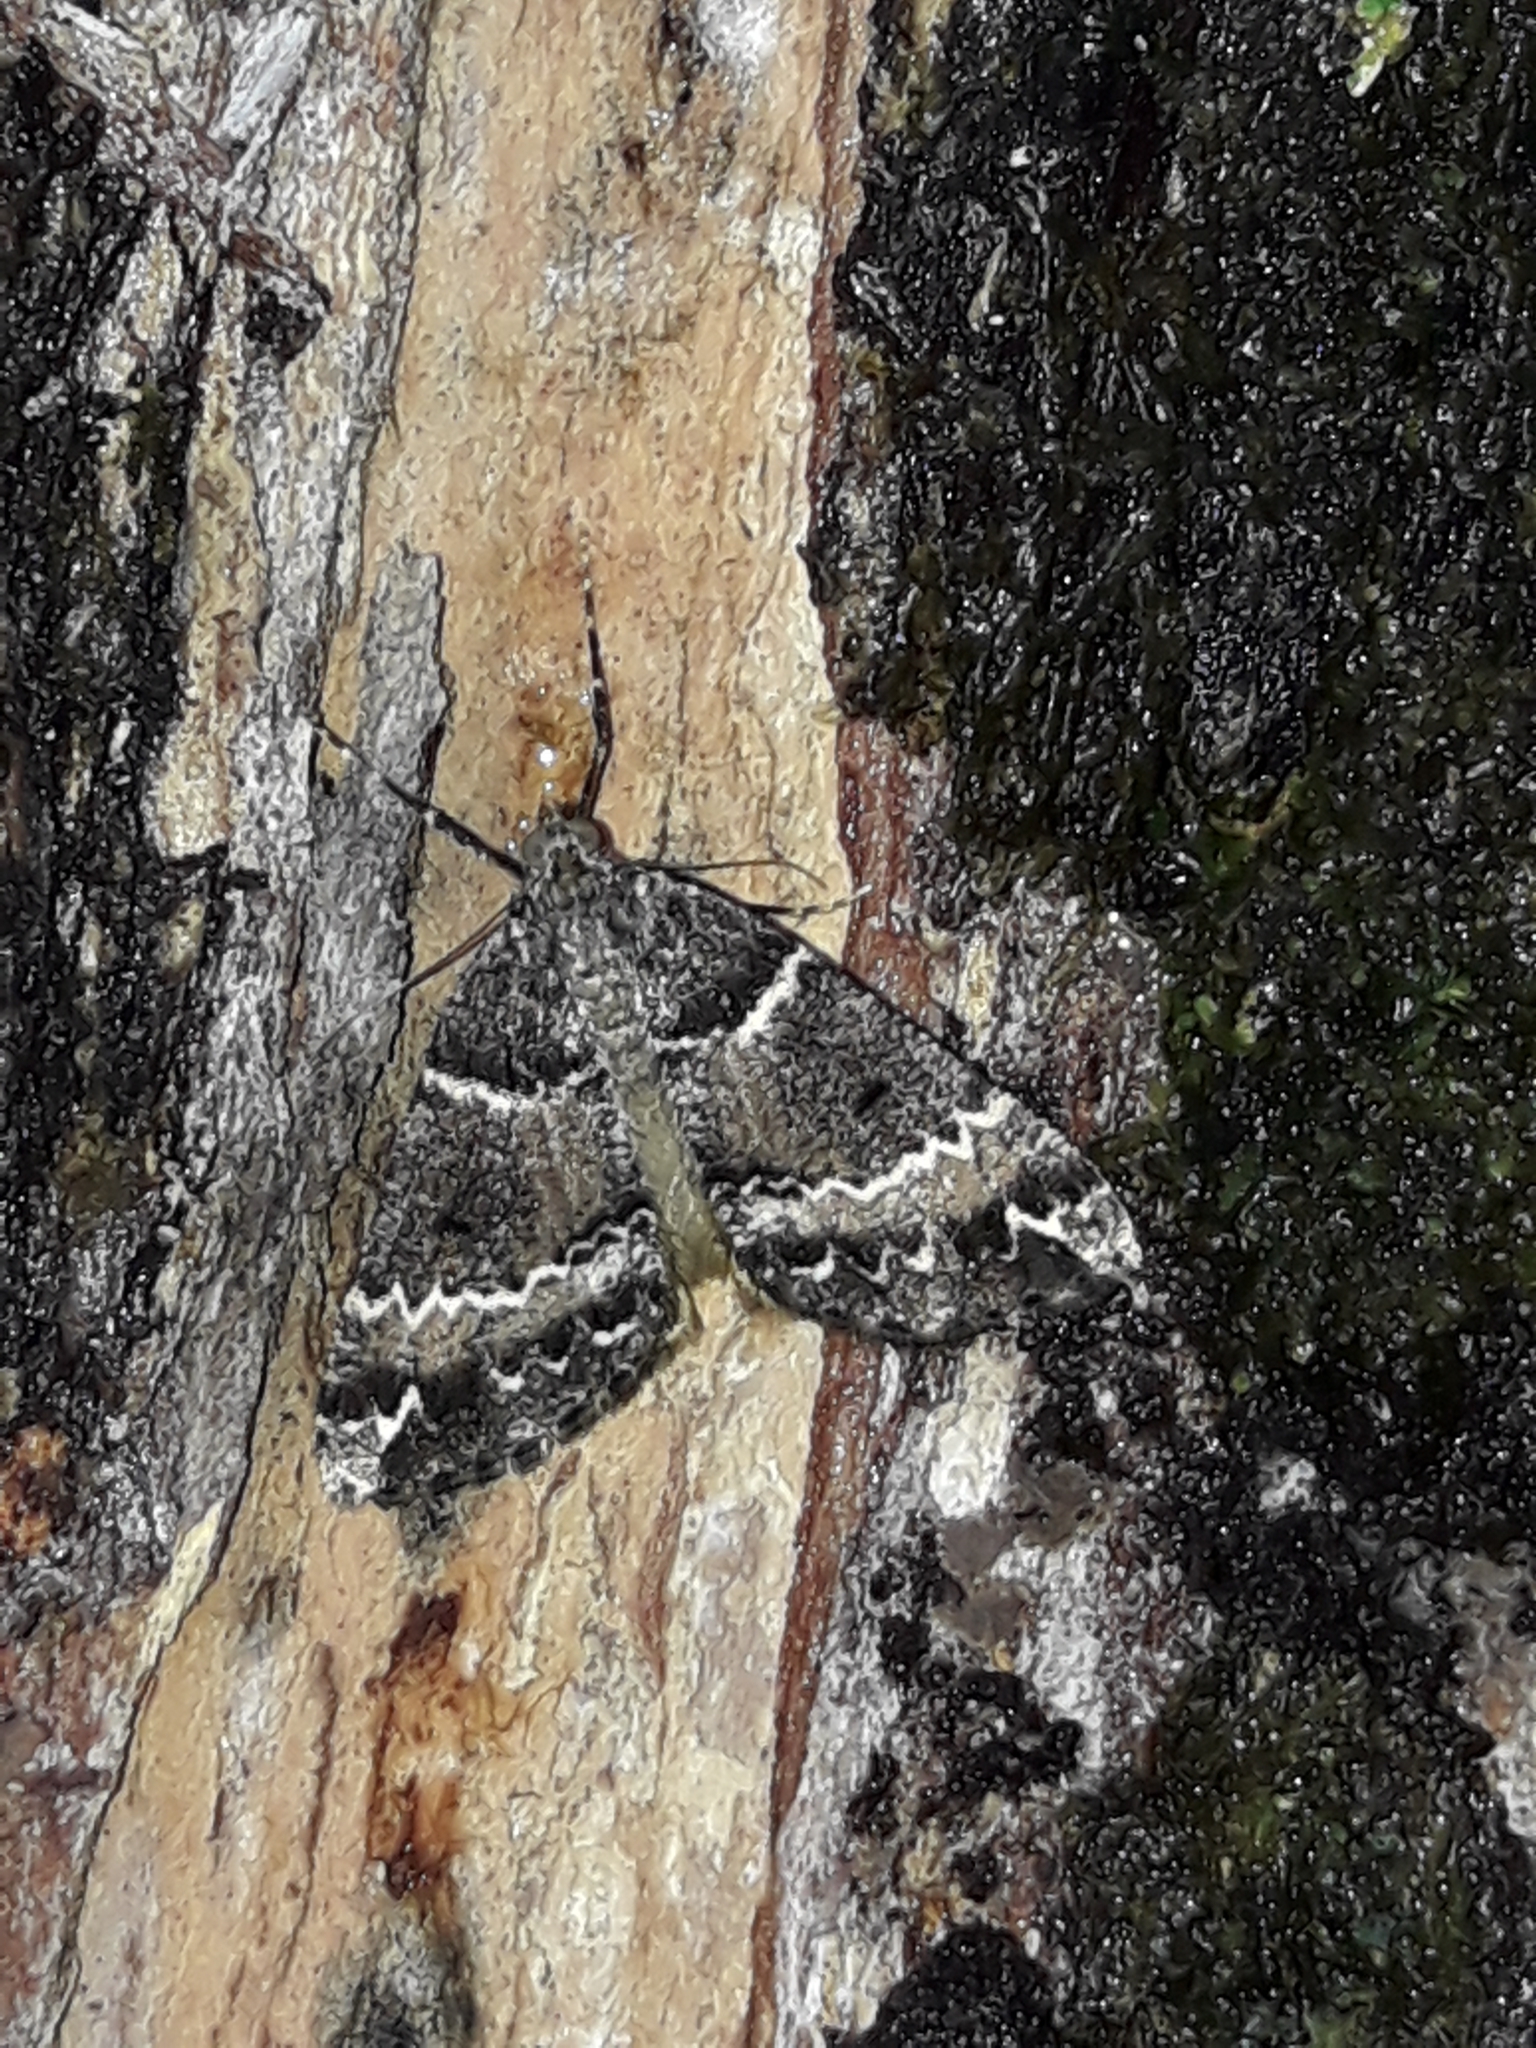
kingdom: Animalia
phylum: Arthropoda
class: Insecta
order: Lepidoptera
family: Geometridae
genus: Pseudocoremia
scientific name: Pseudocoremia
